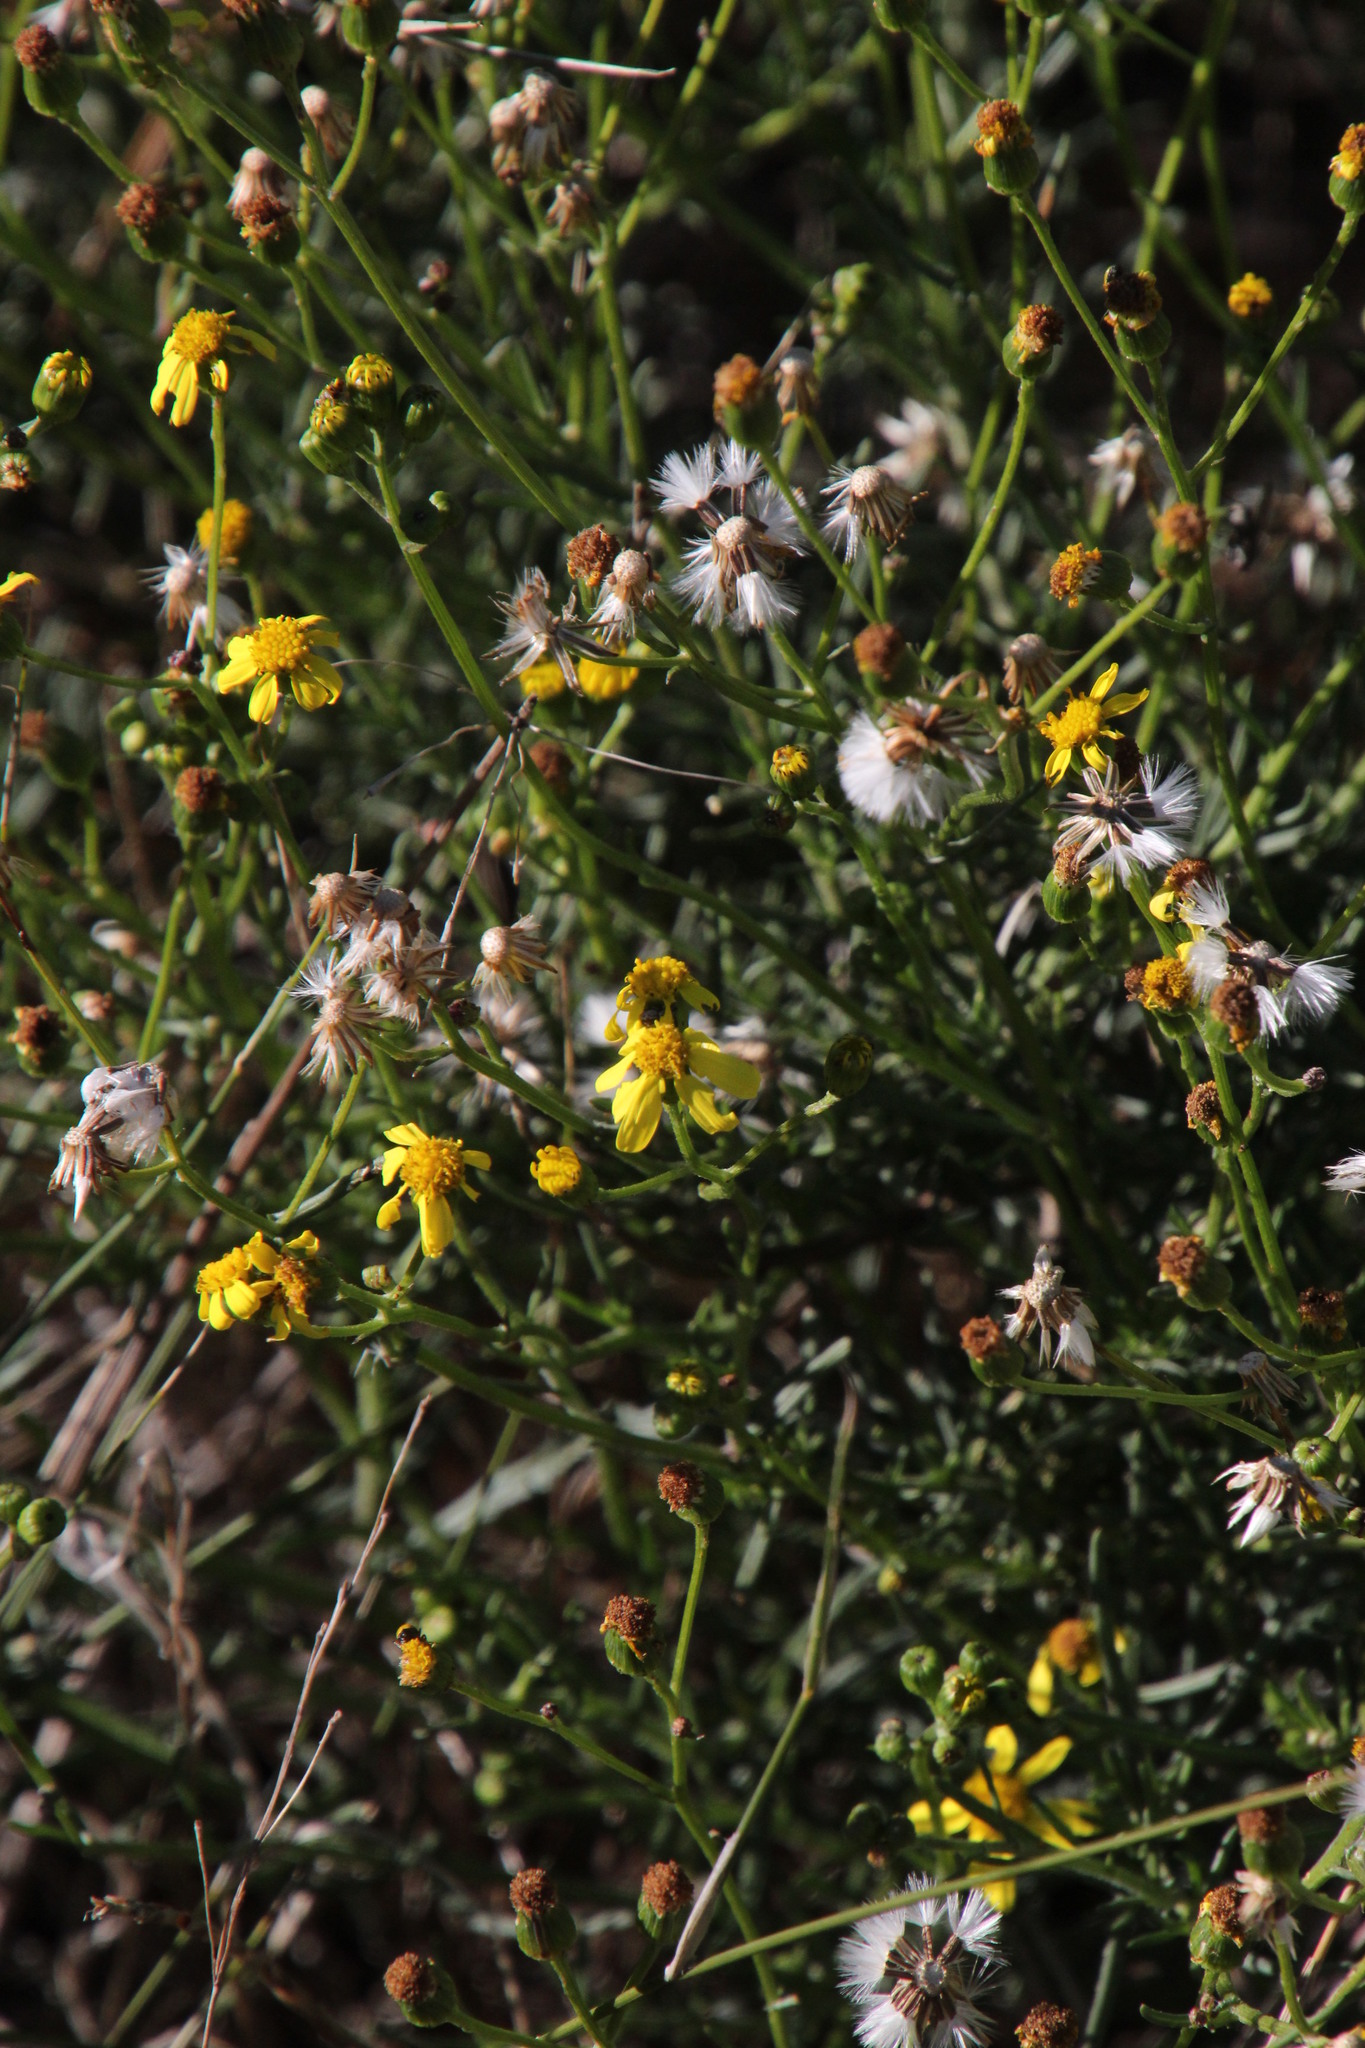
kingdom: Plantae
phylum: Tracheophyta
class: Magnoliopsida
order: Asterales
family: Asteraceae
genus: Senecio
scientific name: Senecio burchellii
